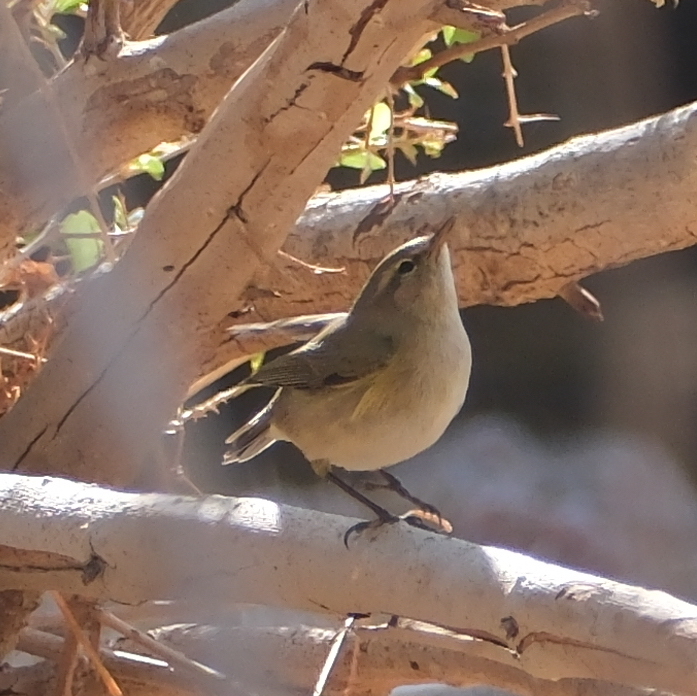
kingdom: Animalia
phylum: Chordata
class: Aves
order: Passeriformes
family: Phylloscopidae
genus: Phylloscopus
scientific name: Phylloscopus collybita
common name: Common chiffchaff
